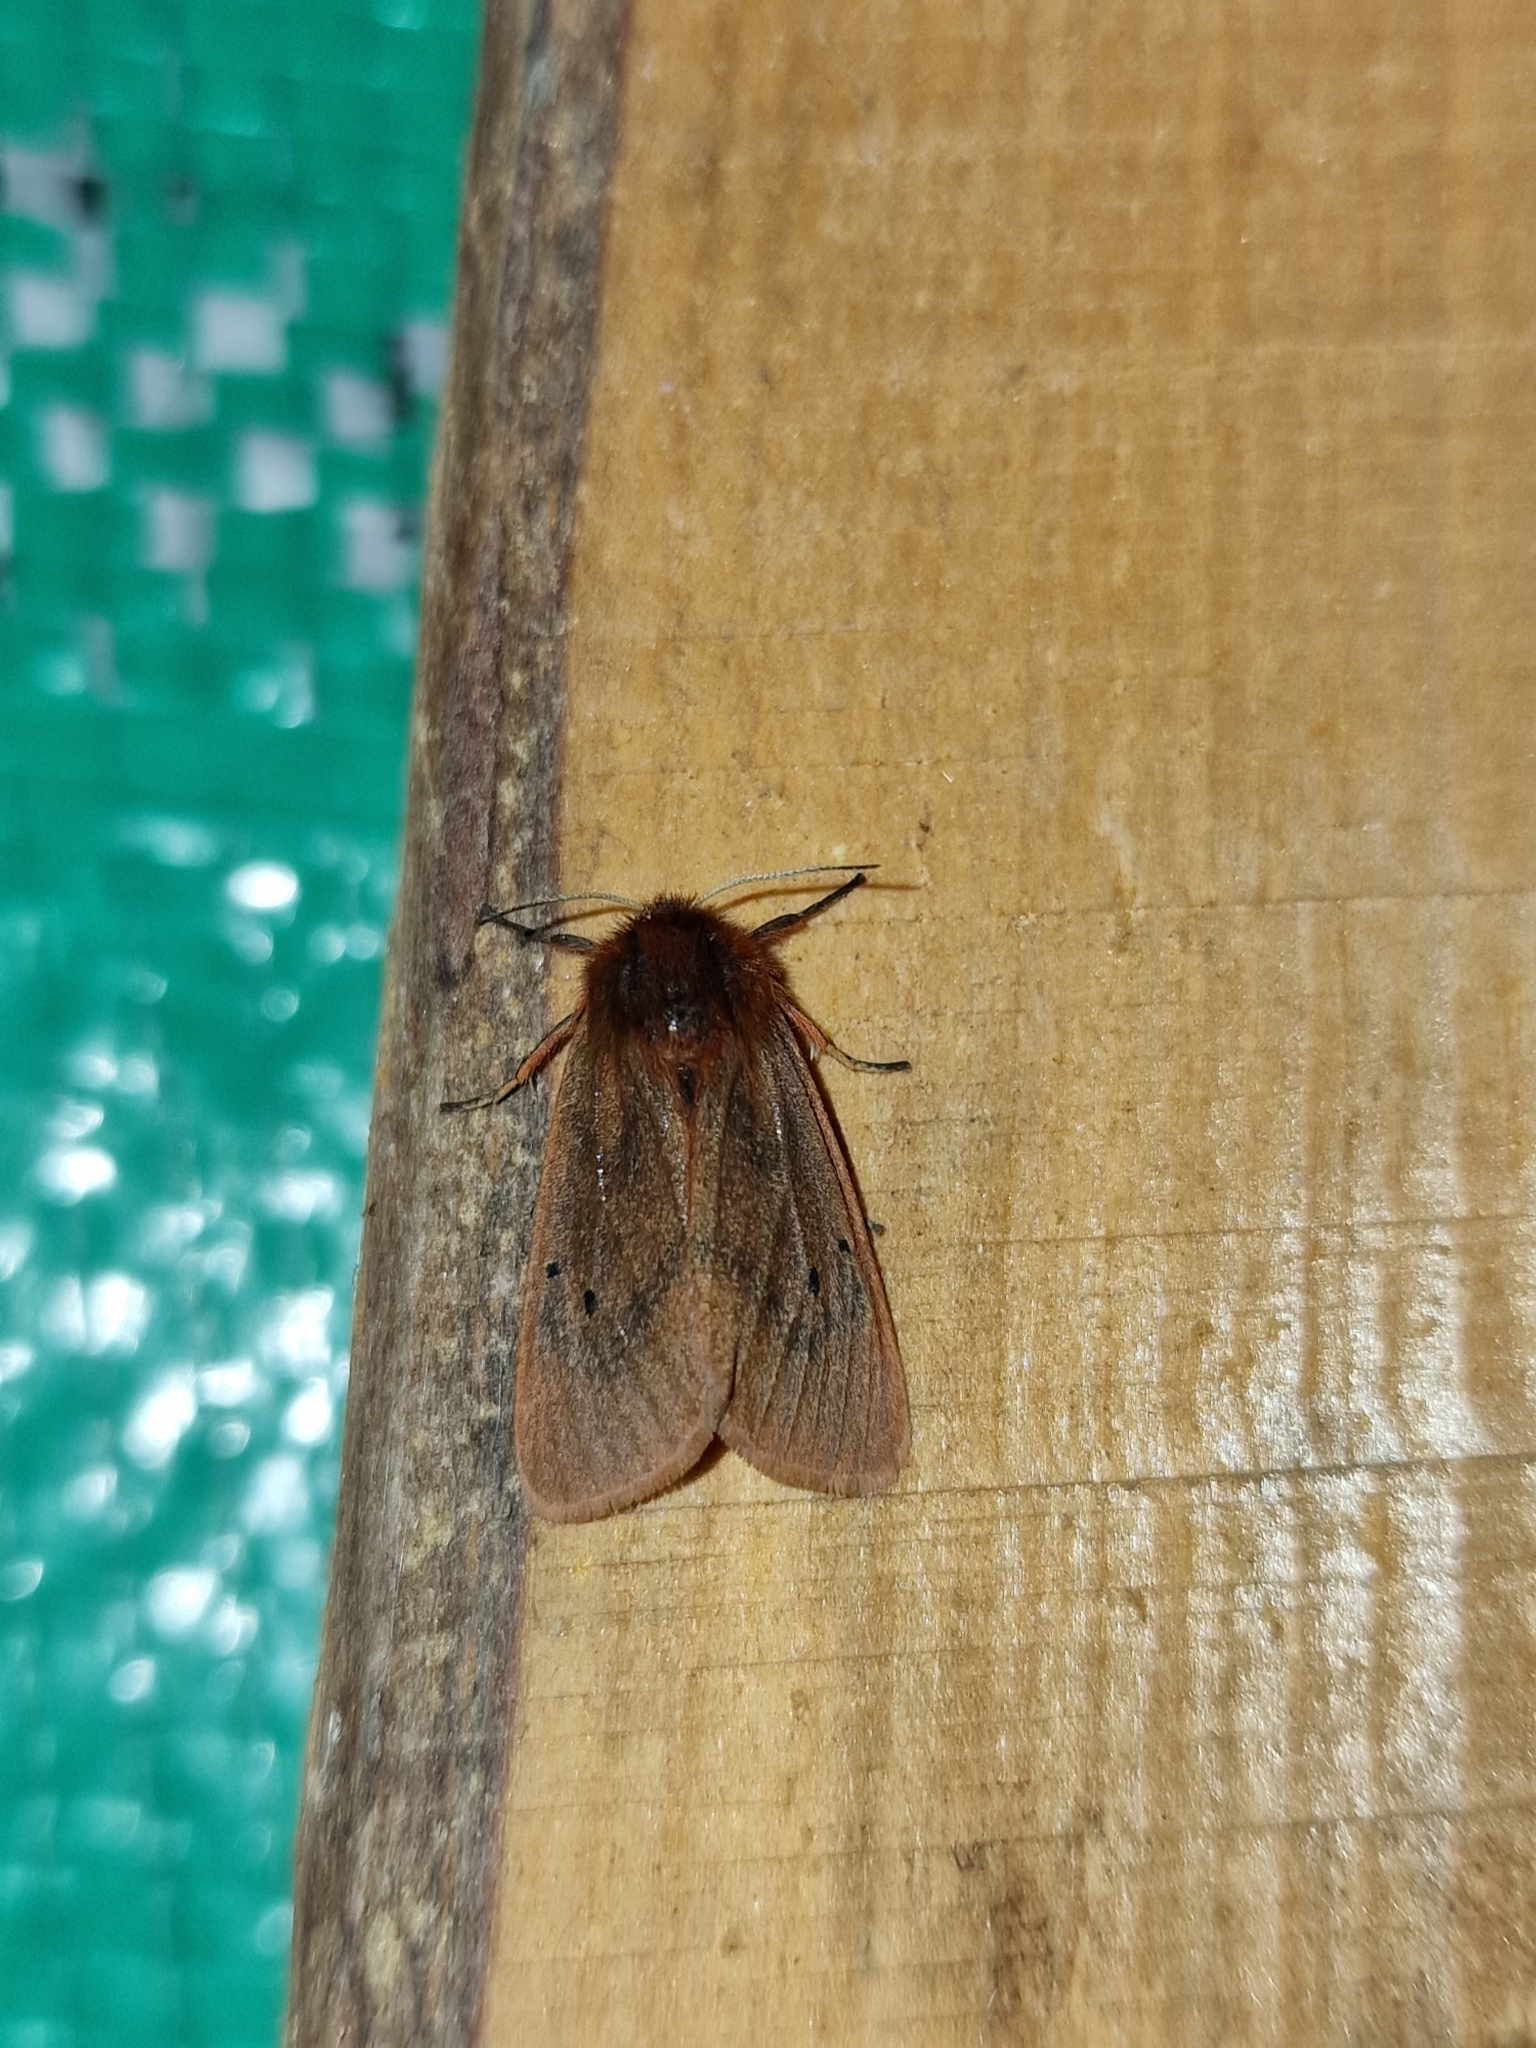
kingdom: Animalia
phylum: Arthropoda
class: Insecta
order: Lepidoptera
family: Erebidae
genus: Phragmatobia
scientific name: Phragmatobia fuliginosa
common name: Ruby tiger
